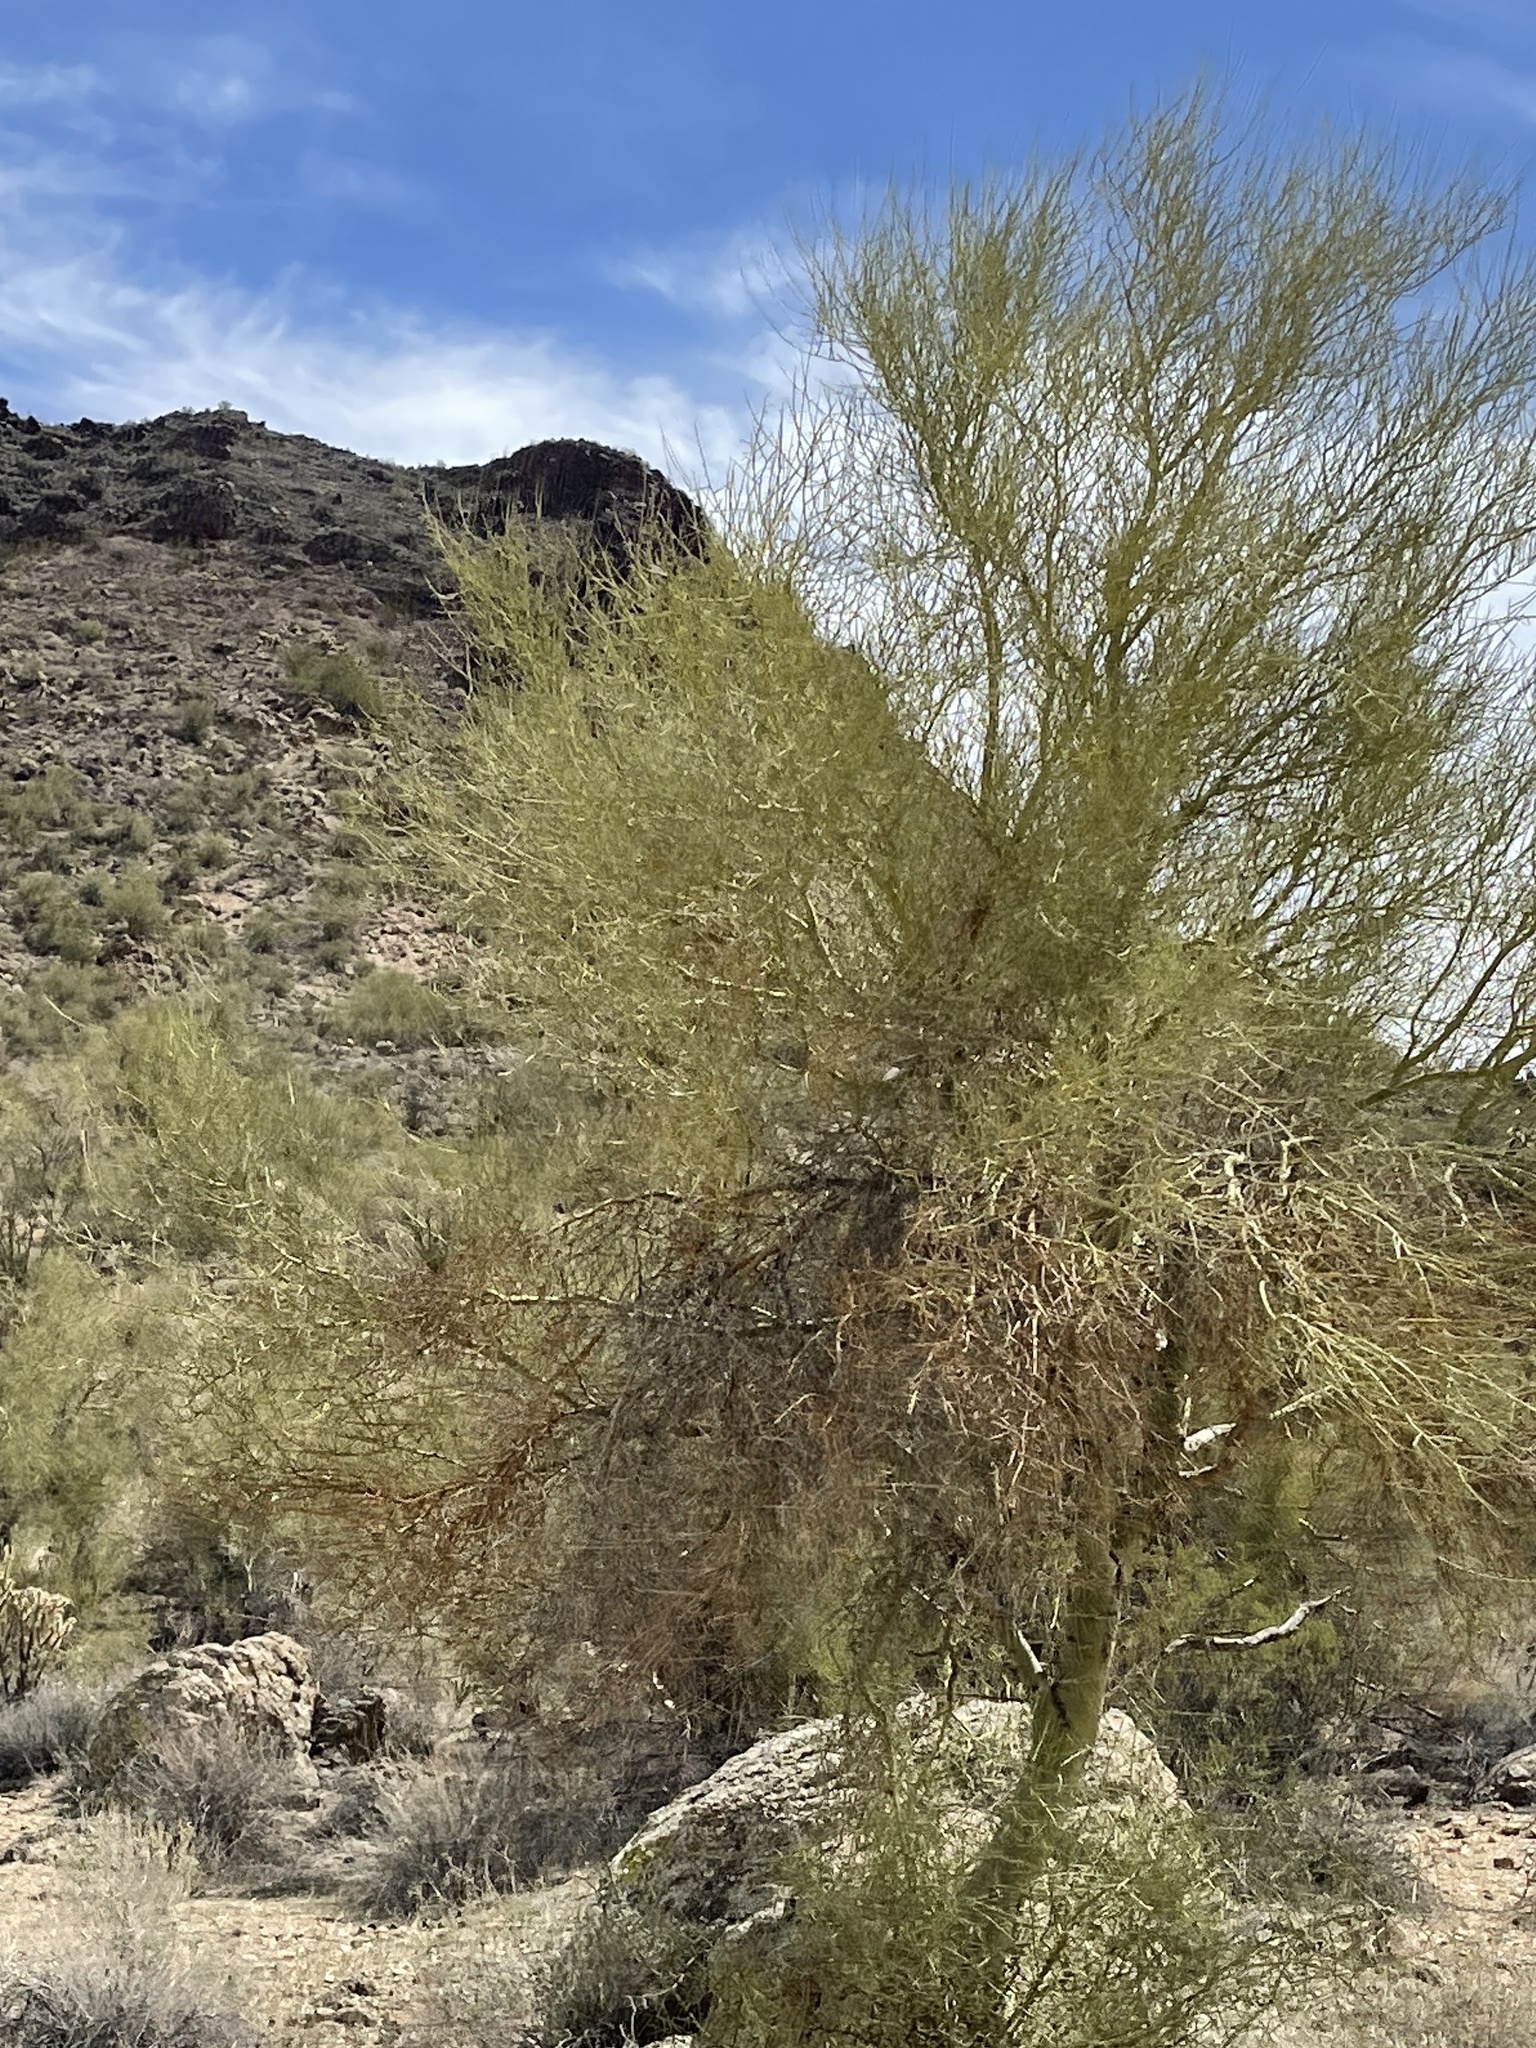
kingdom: Plantae
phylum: Tracheophyta
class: Magnoliopsida
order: Fabales
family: Fabaceae
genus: Parkinsonia
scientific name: Parkinsonia microphylla
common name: Yellow paloverde
